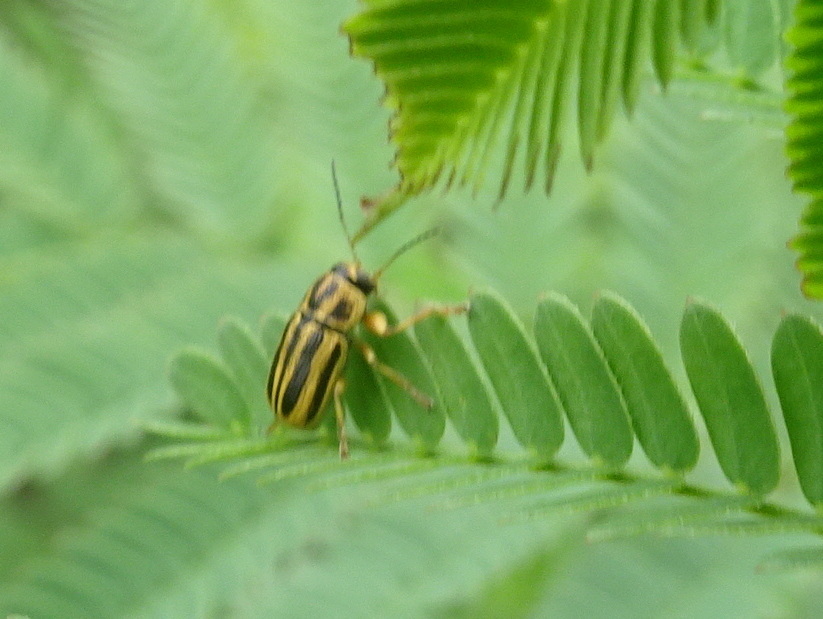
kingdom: Animalia
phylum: Arthropoda
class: Insecta
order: Coleoptera
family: Chrysomelidae
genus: Pachybrachis
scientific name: Pachybrachis pawnee
